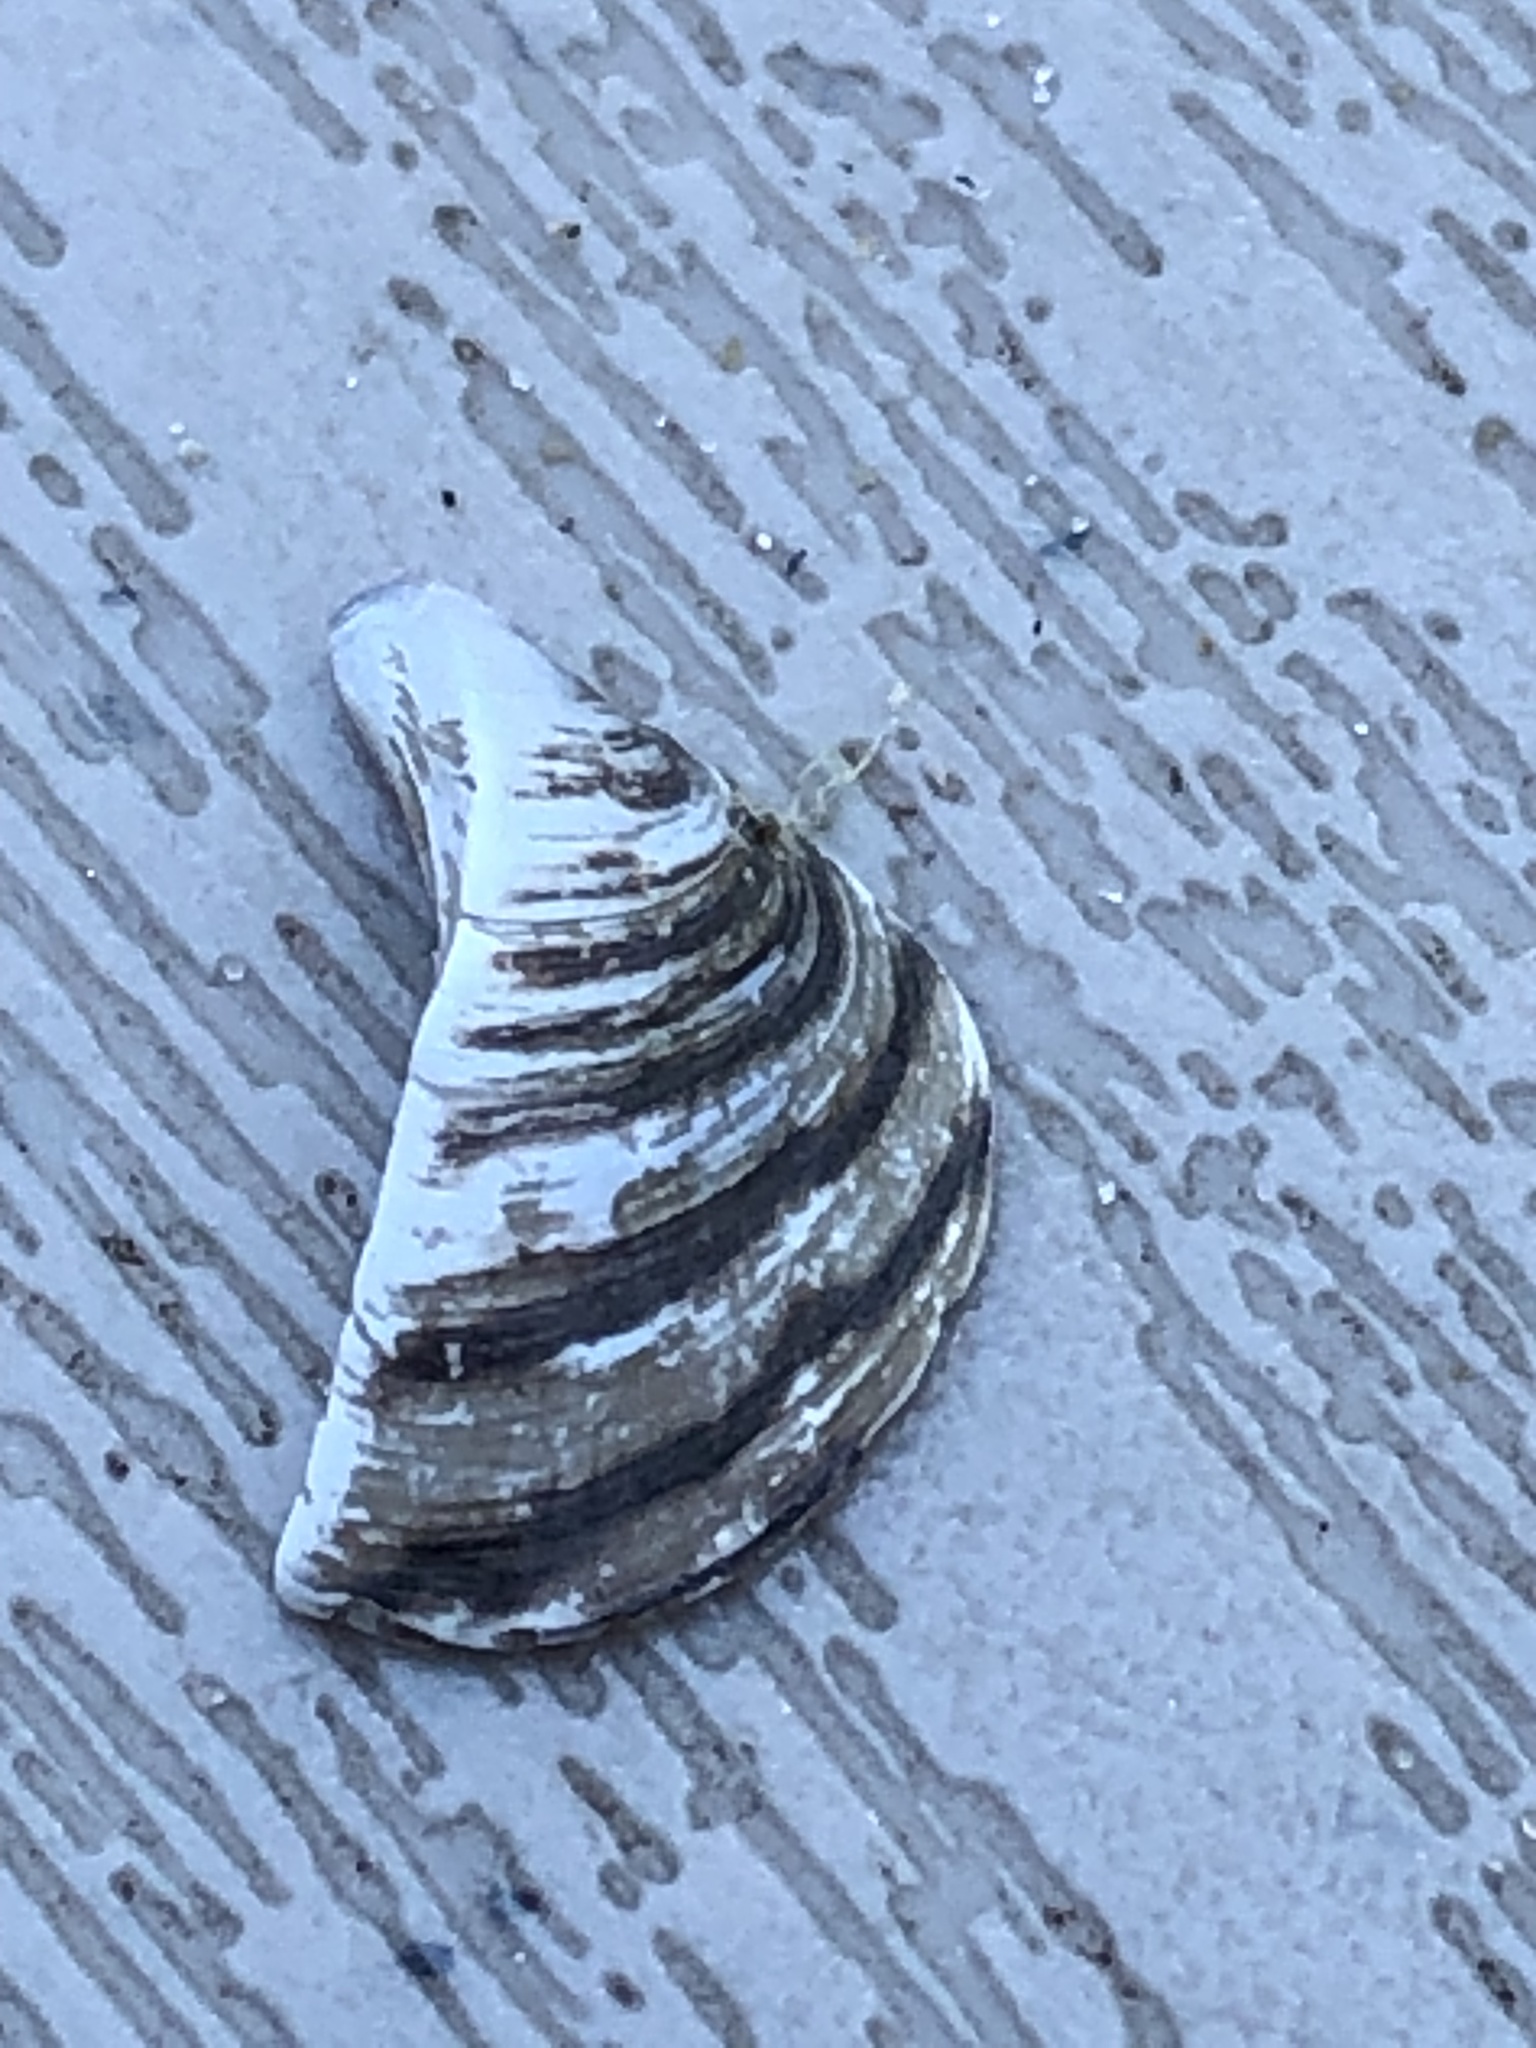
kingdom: Animalia
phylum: Mollusca
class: Bivalvia
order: Myida
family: Dreissenidae
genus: Dreissena
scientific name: Dreissena polymorpha
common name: Zebra mussel
